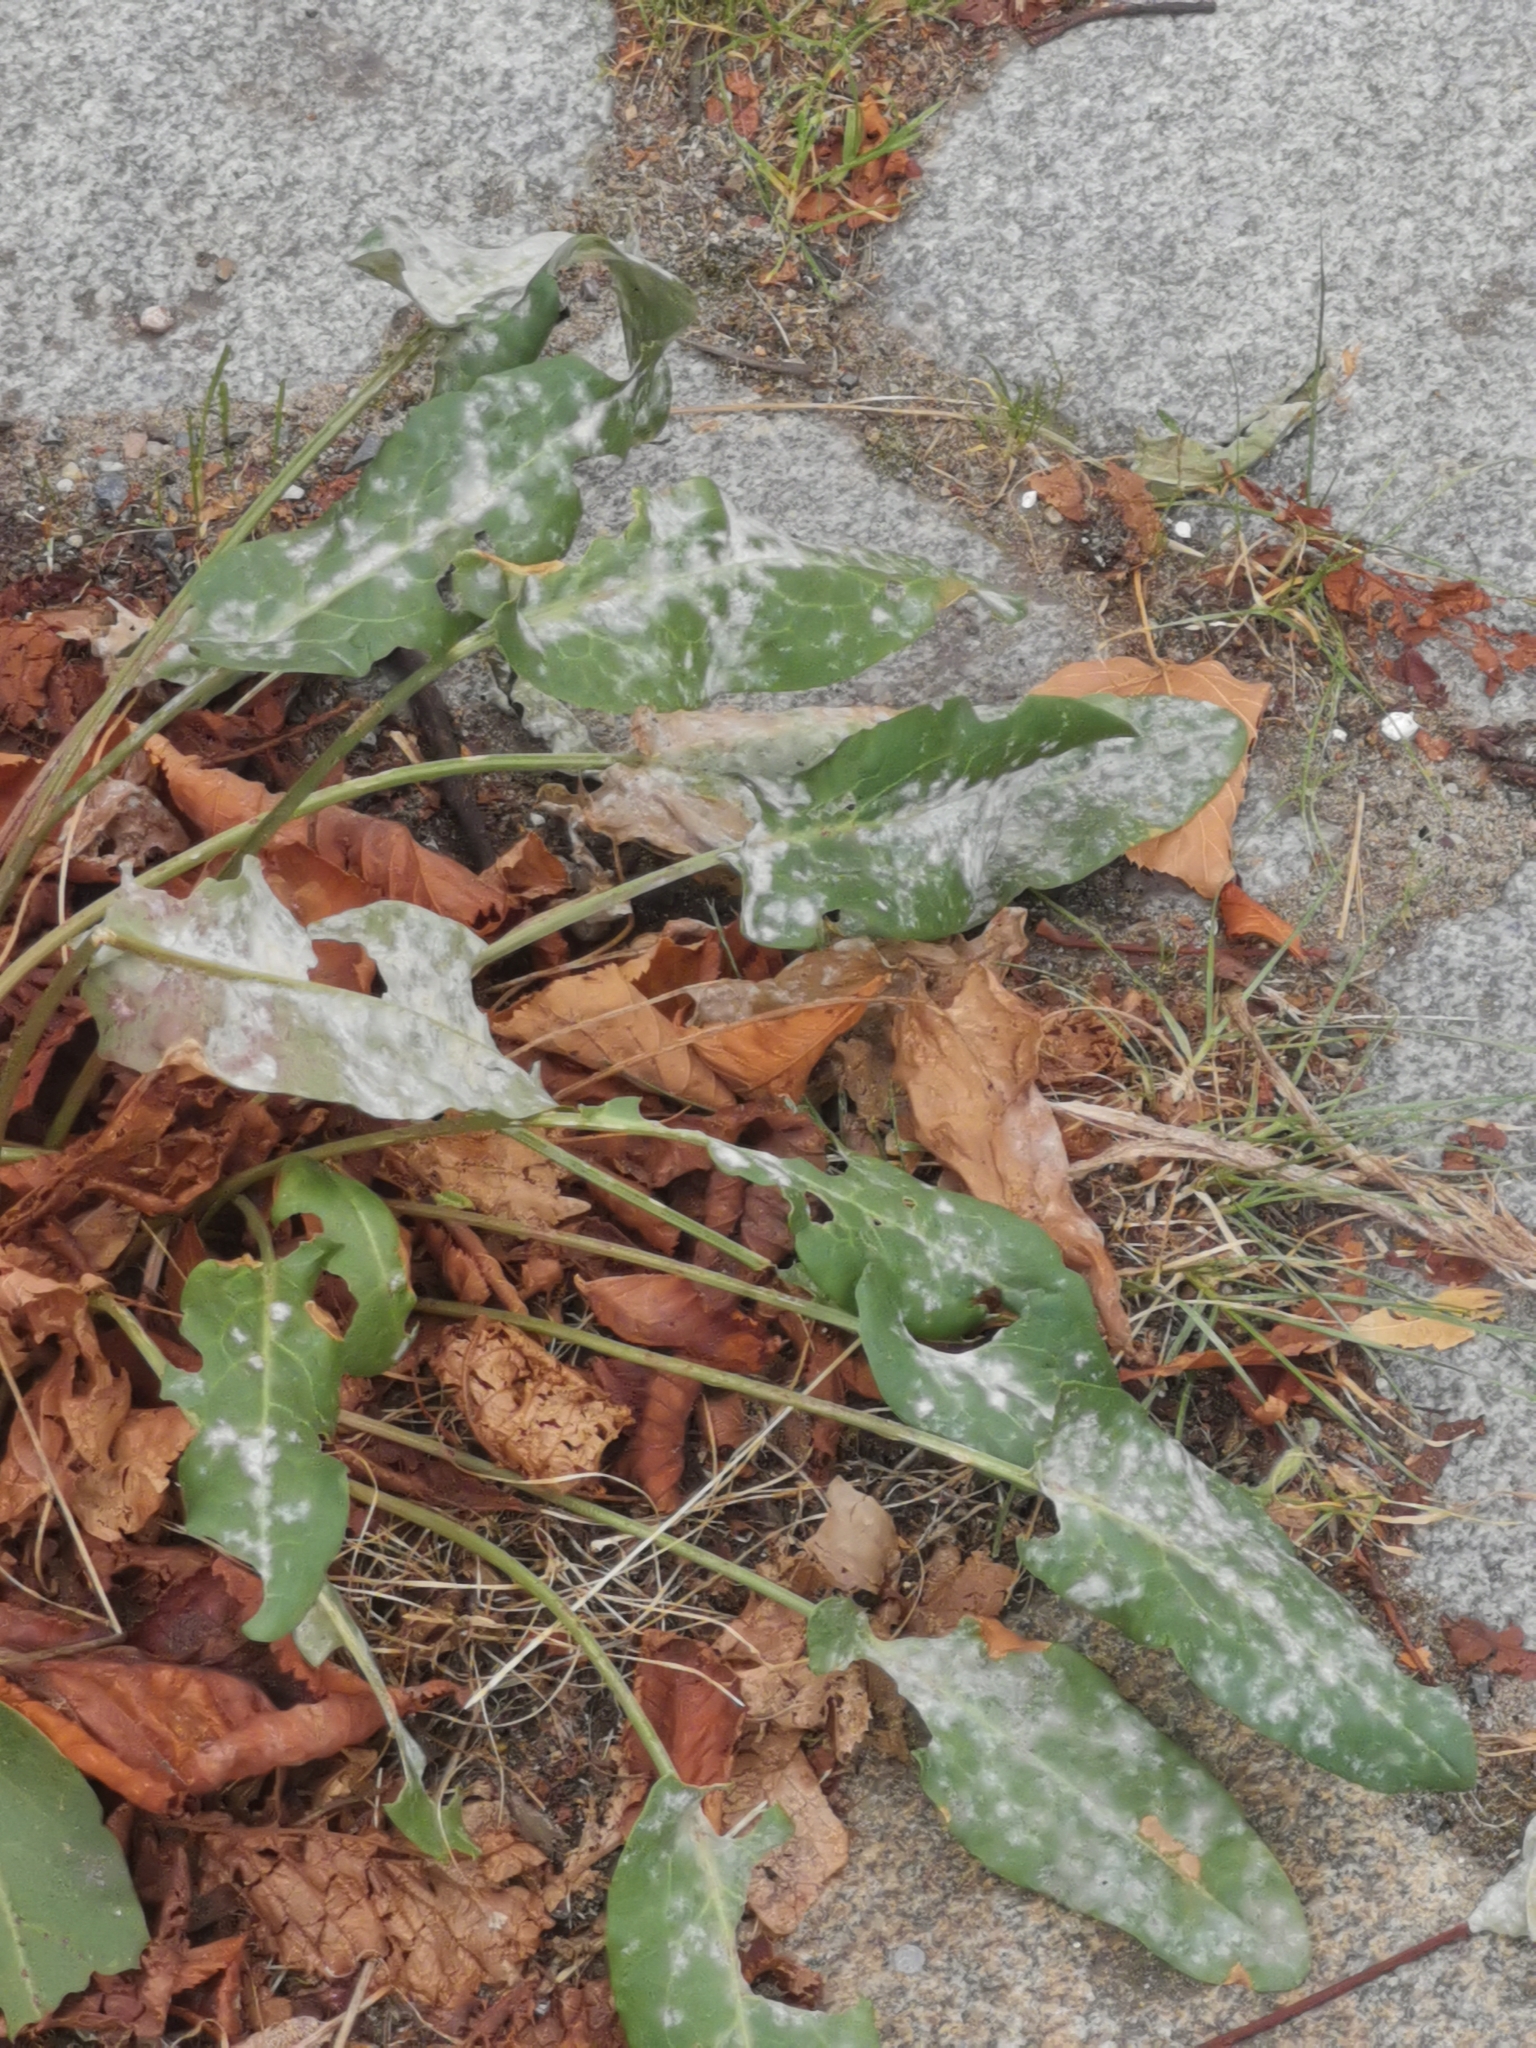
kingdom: Fungi
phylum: Ascomycota
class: Leotiomycetes
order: Helotiales
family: Erysiphaceae
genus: Erysiphe
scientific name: Erysiphe polygoni
